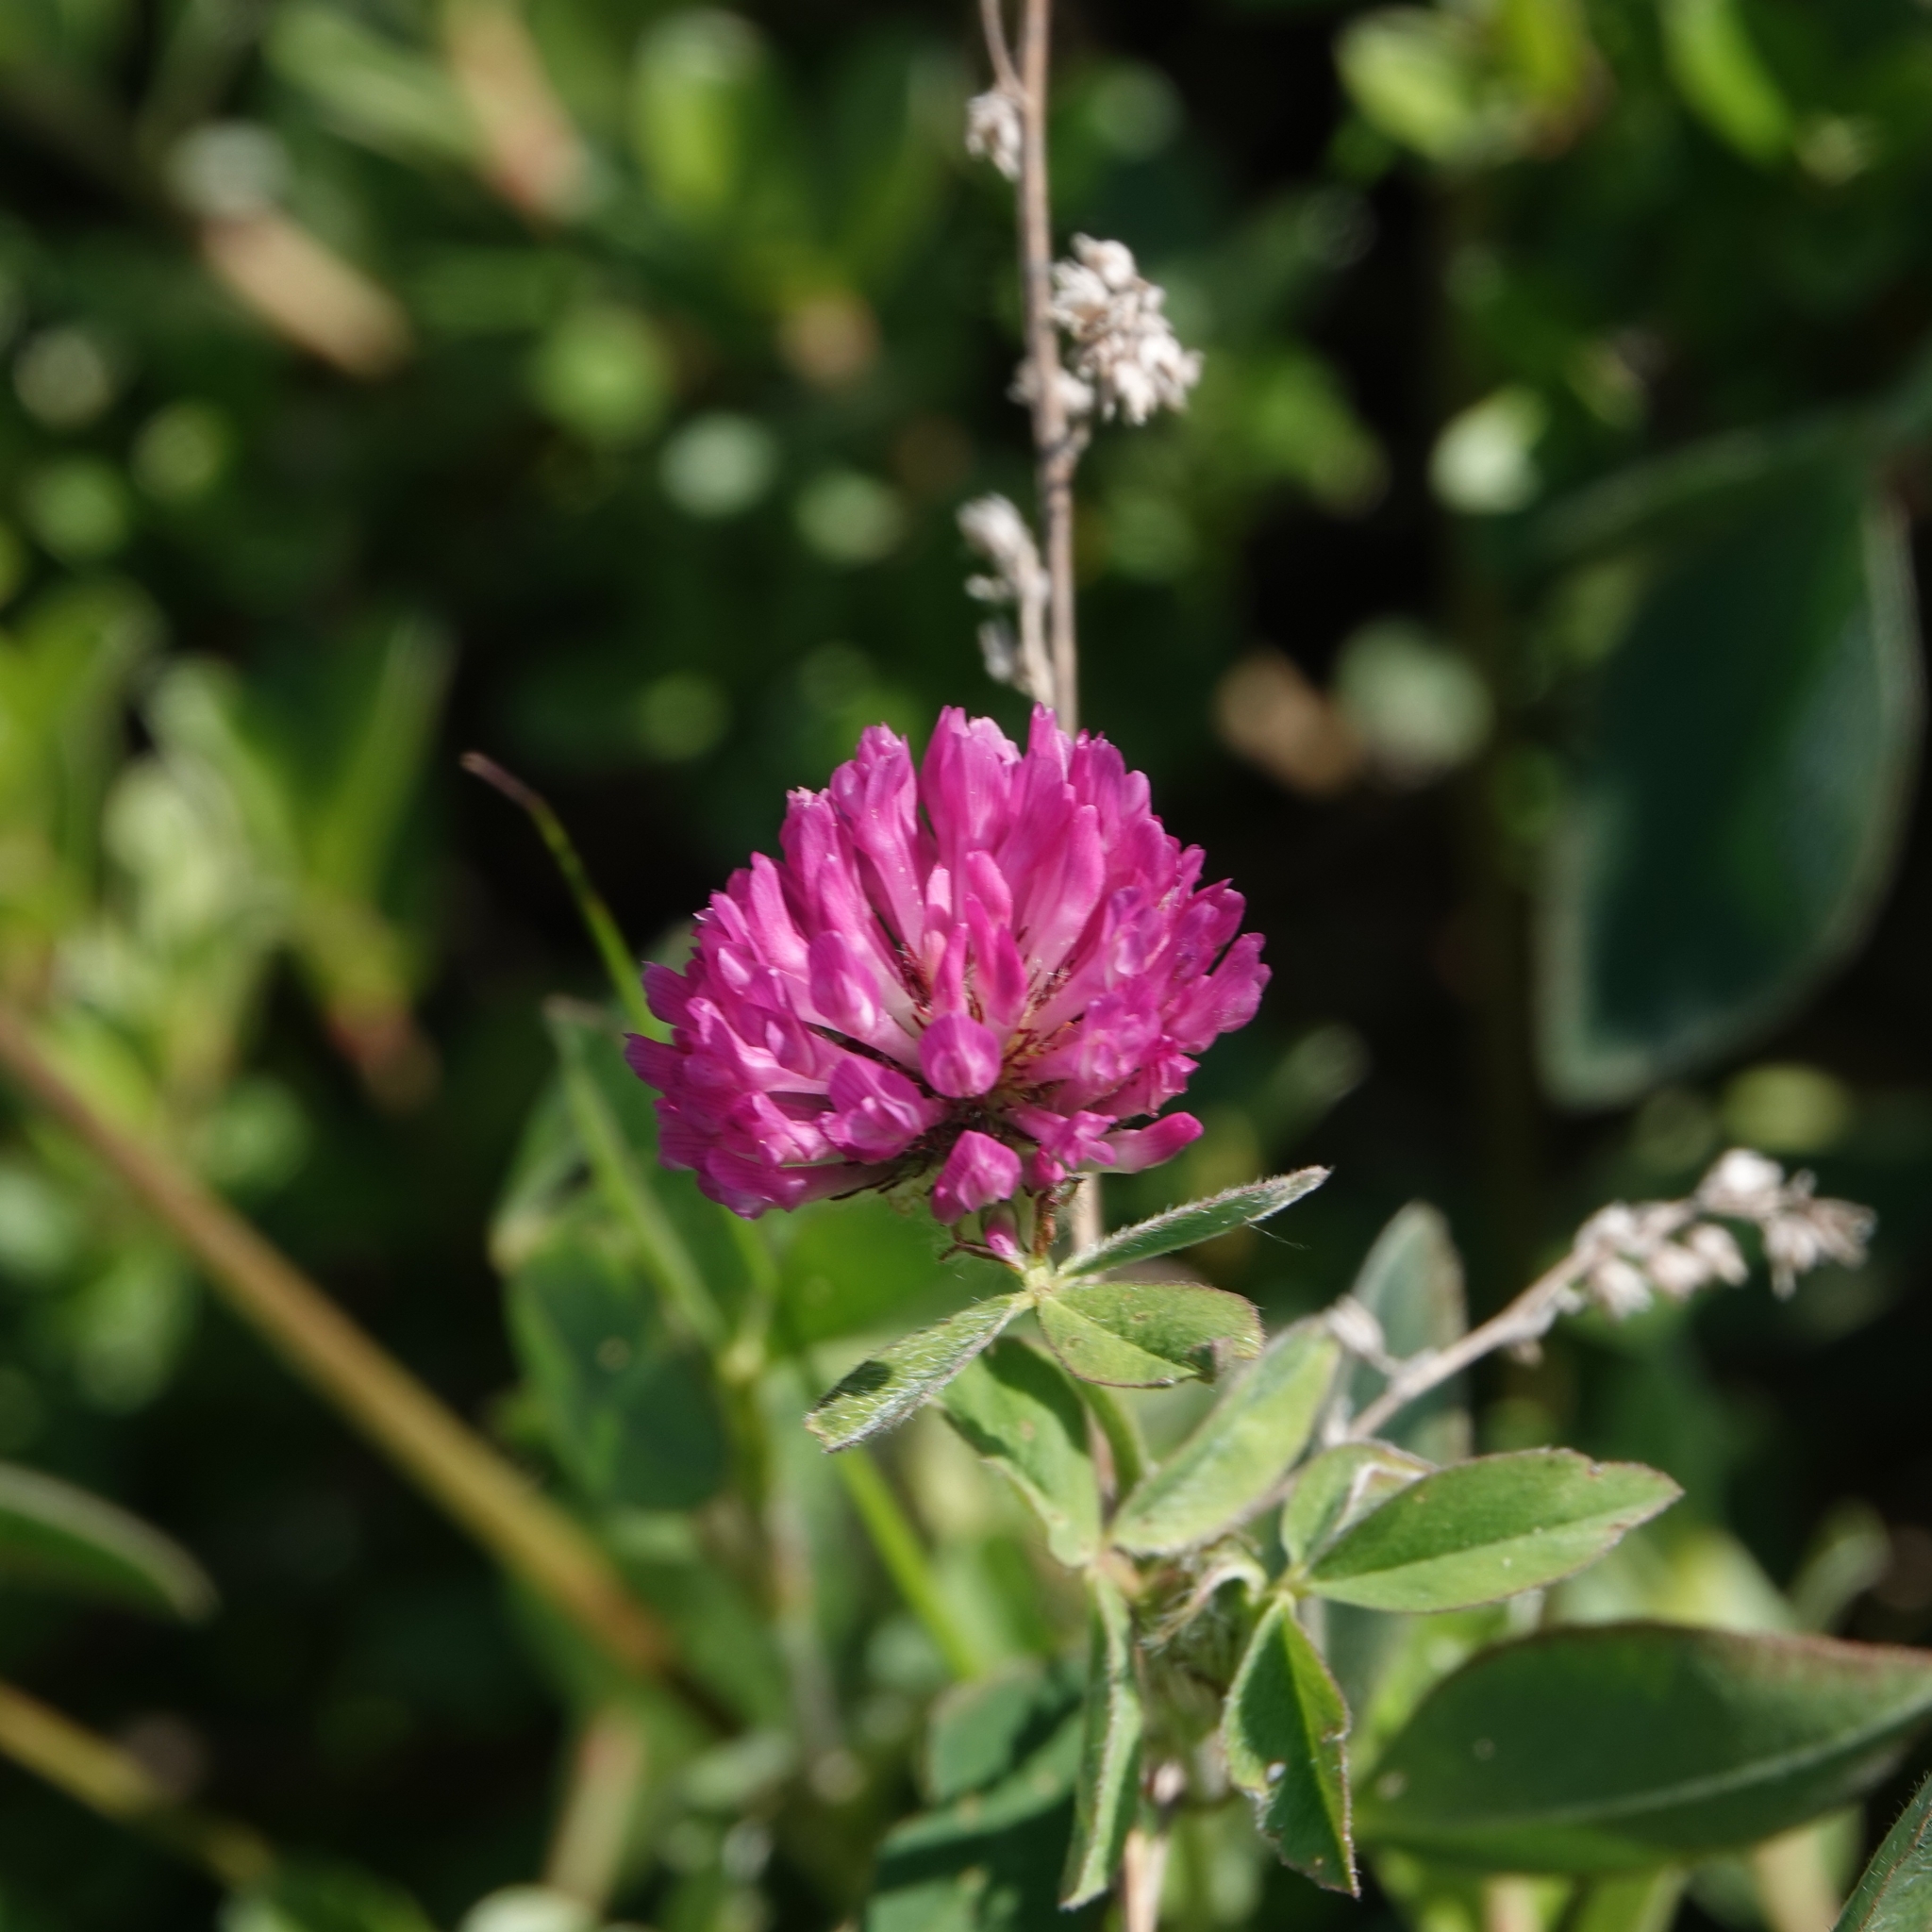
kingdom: Plantae
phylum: Tracheophyta
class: Magnoliopsida
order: Fabales
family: Fabaceae
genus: Trifolium
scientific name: Trifolium pratense
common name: Red clover
